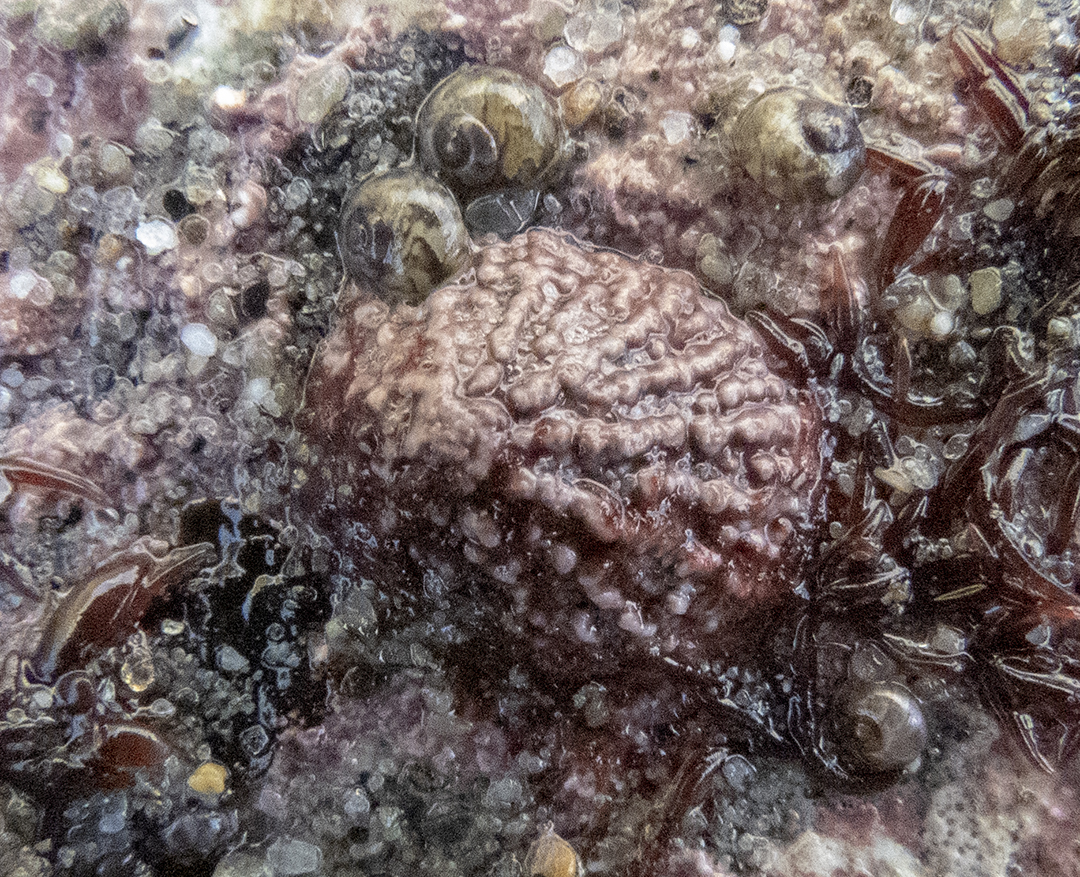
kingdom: Animalia
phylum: Mollusca
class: Gastropoda
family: Lottiidae
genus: Radiacmea
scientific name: Radiacmea inconspicua
